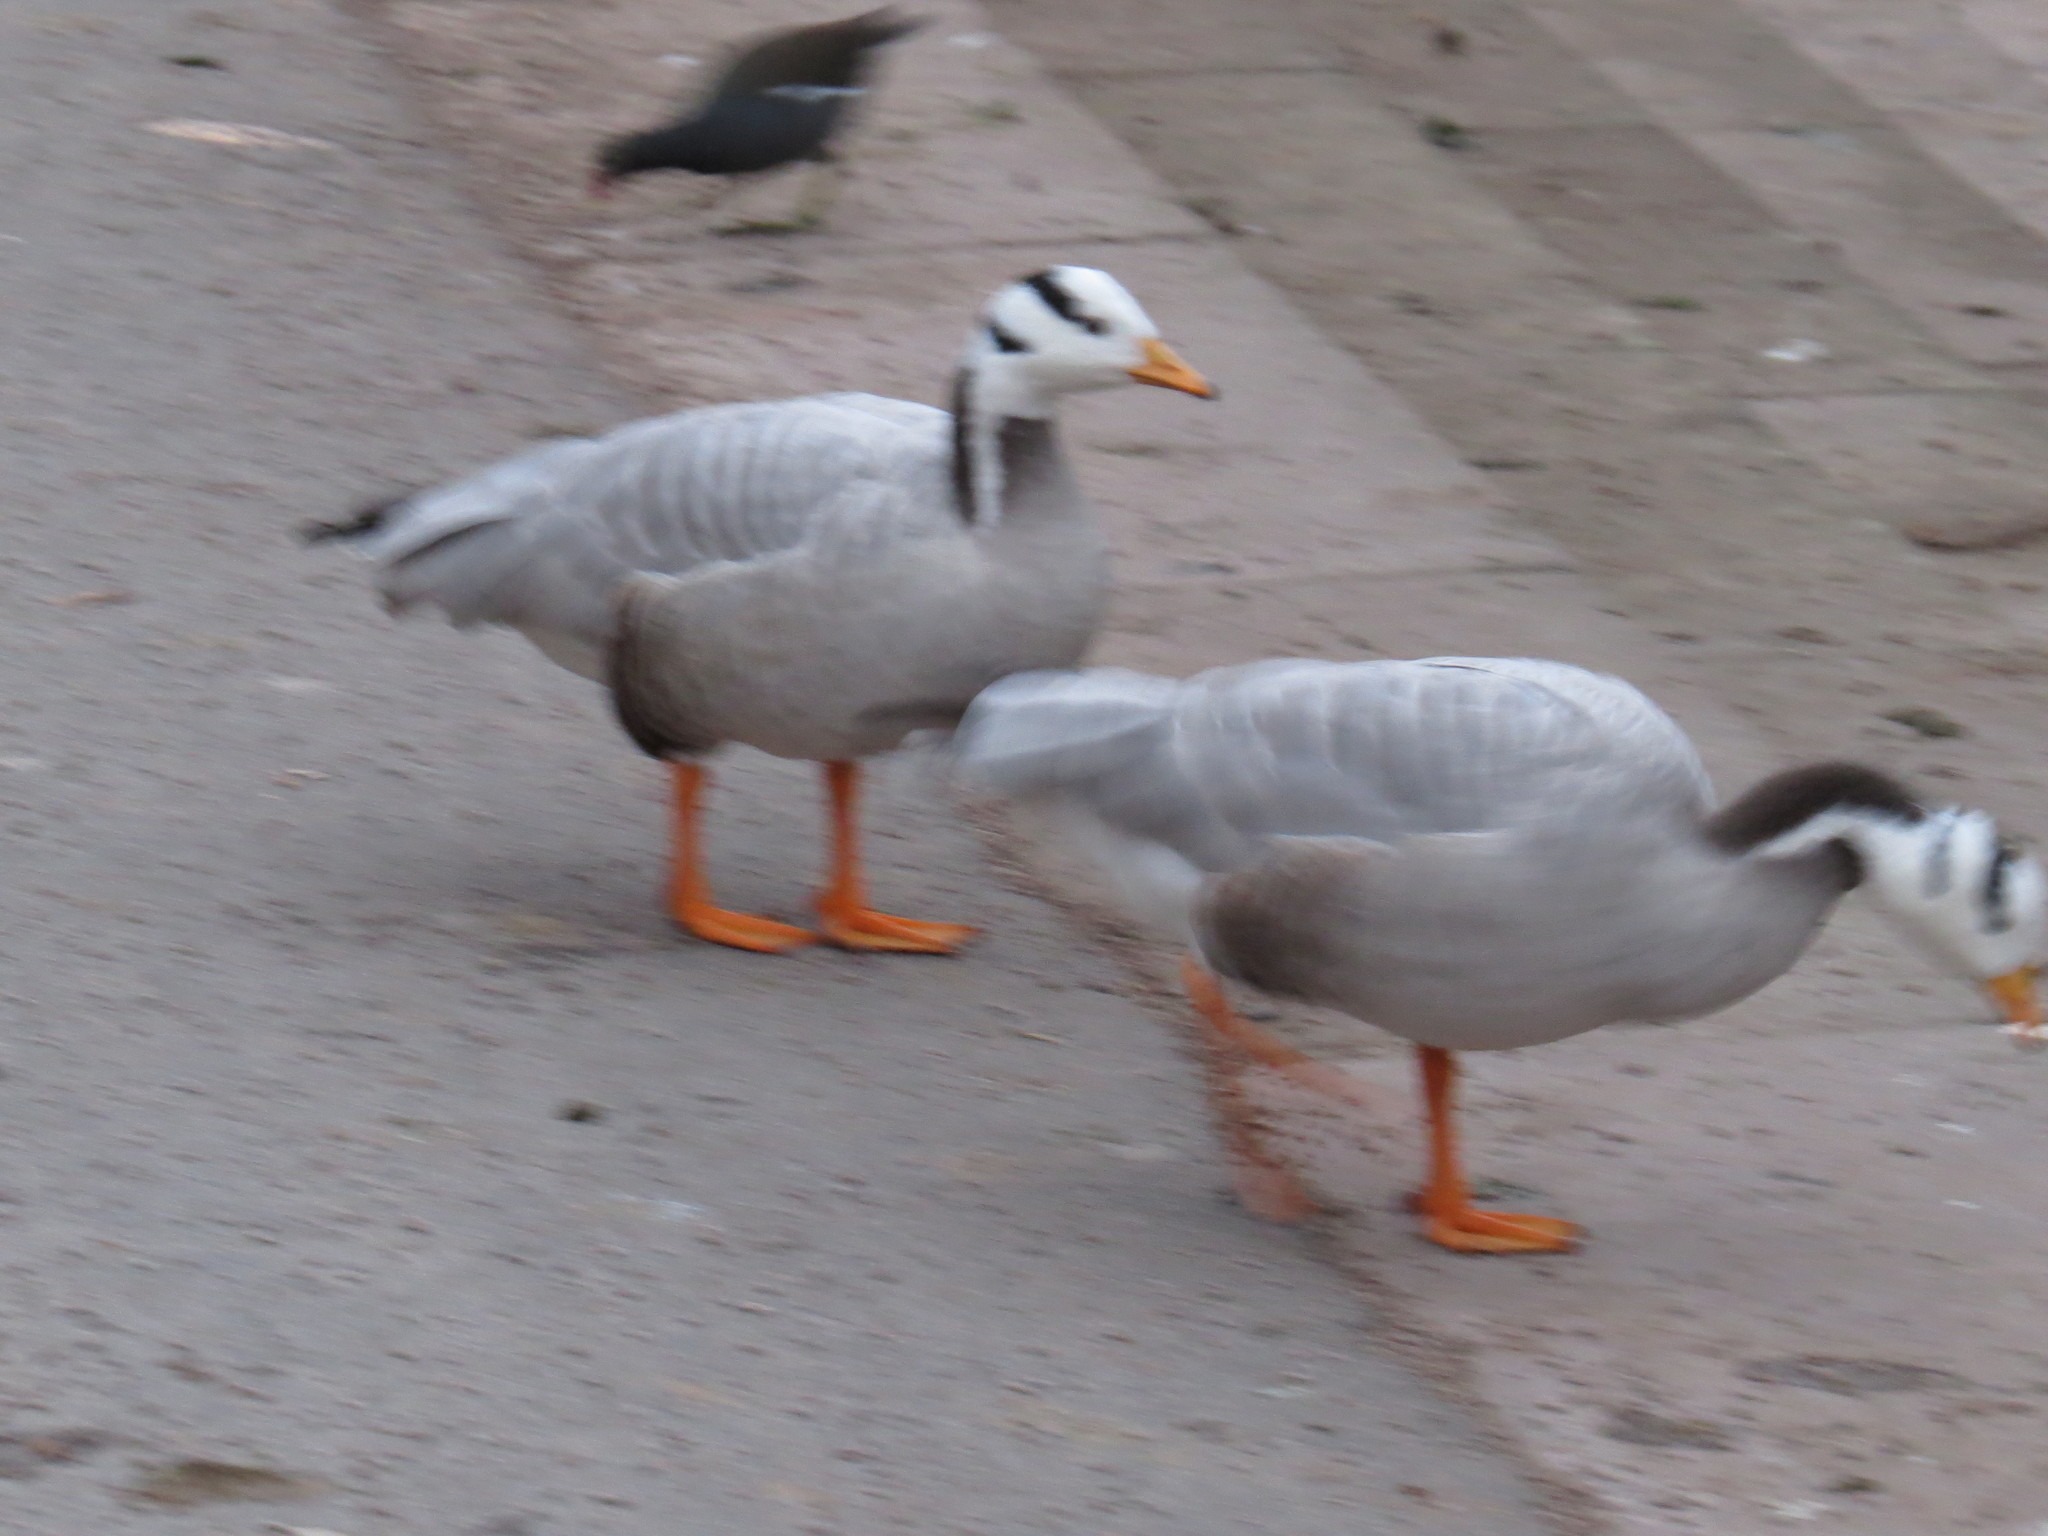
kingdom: Animalia
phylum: Chordata
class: Aves
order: Anseriformes
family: Anatidae
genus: Anser
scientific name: Anser indicus
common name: Bar-headed goose
